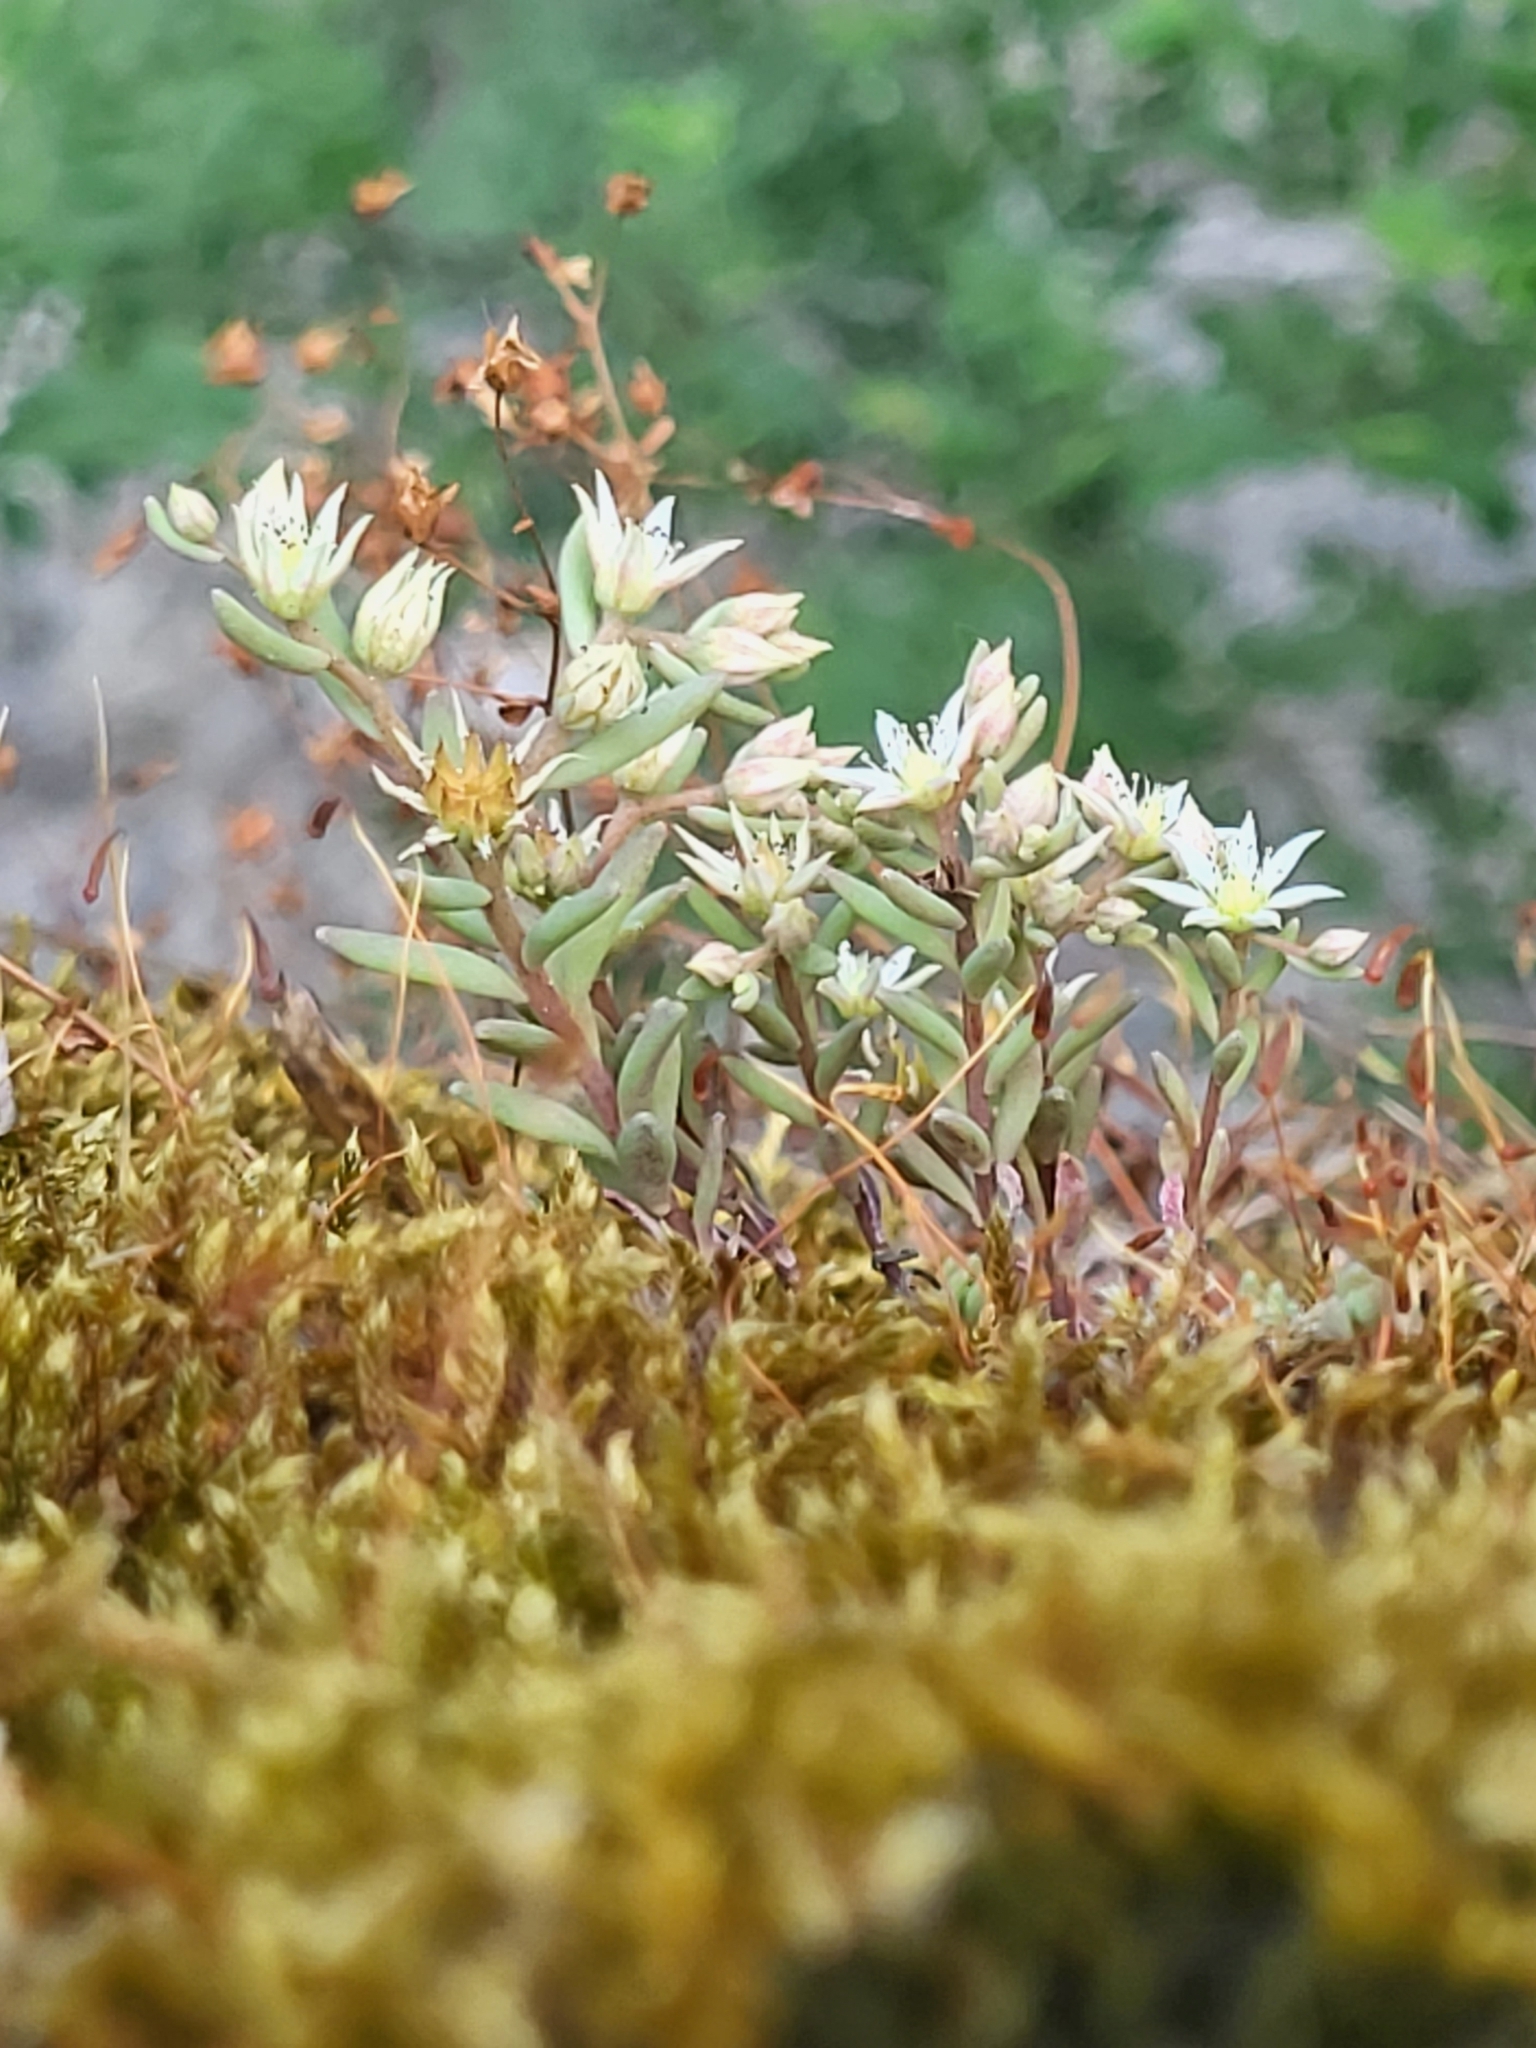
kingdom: Plantae
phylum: Tracheophyta
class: Magnoliopsida
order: Saxifragales
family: Crassulaceae
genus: Sedum
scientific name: Sedum hispanicum
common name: Spanish stonecrop
